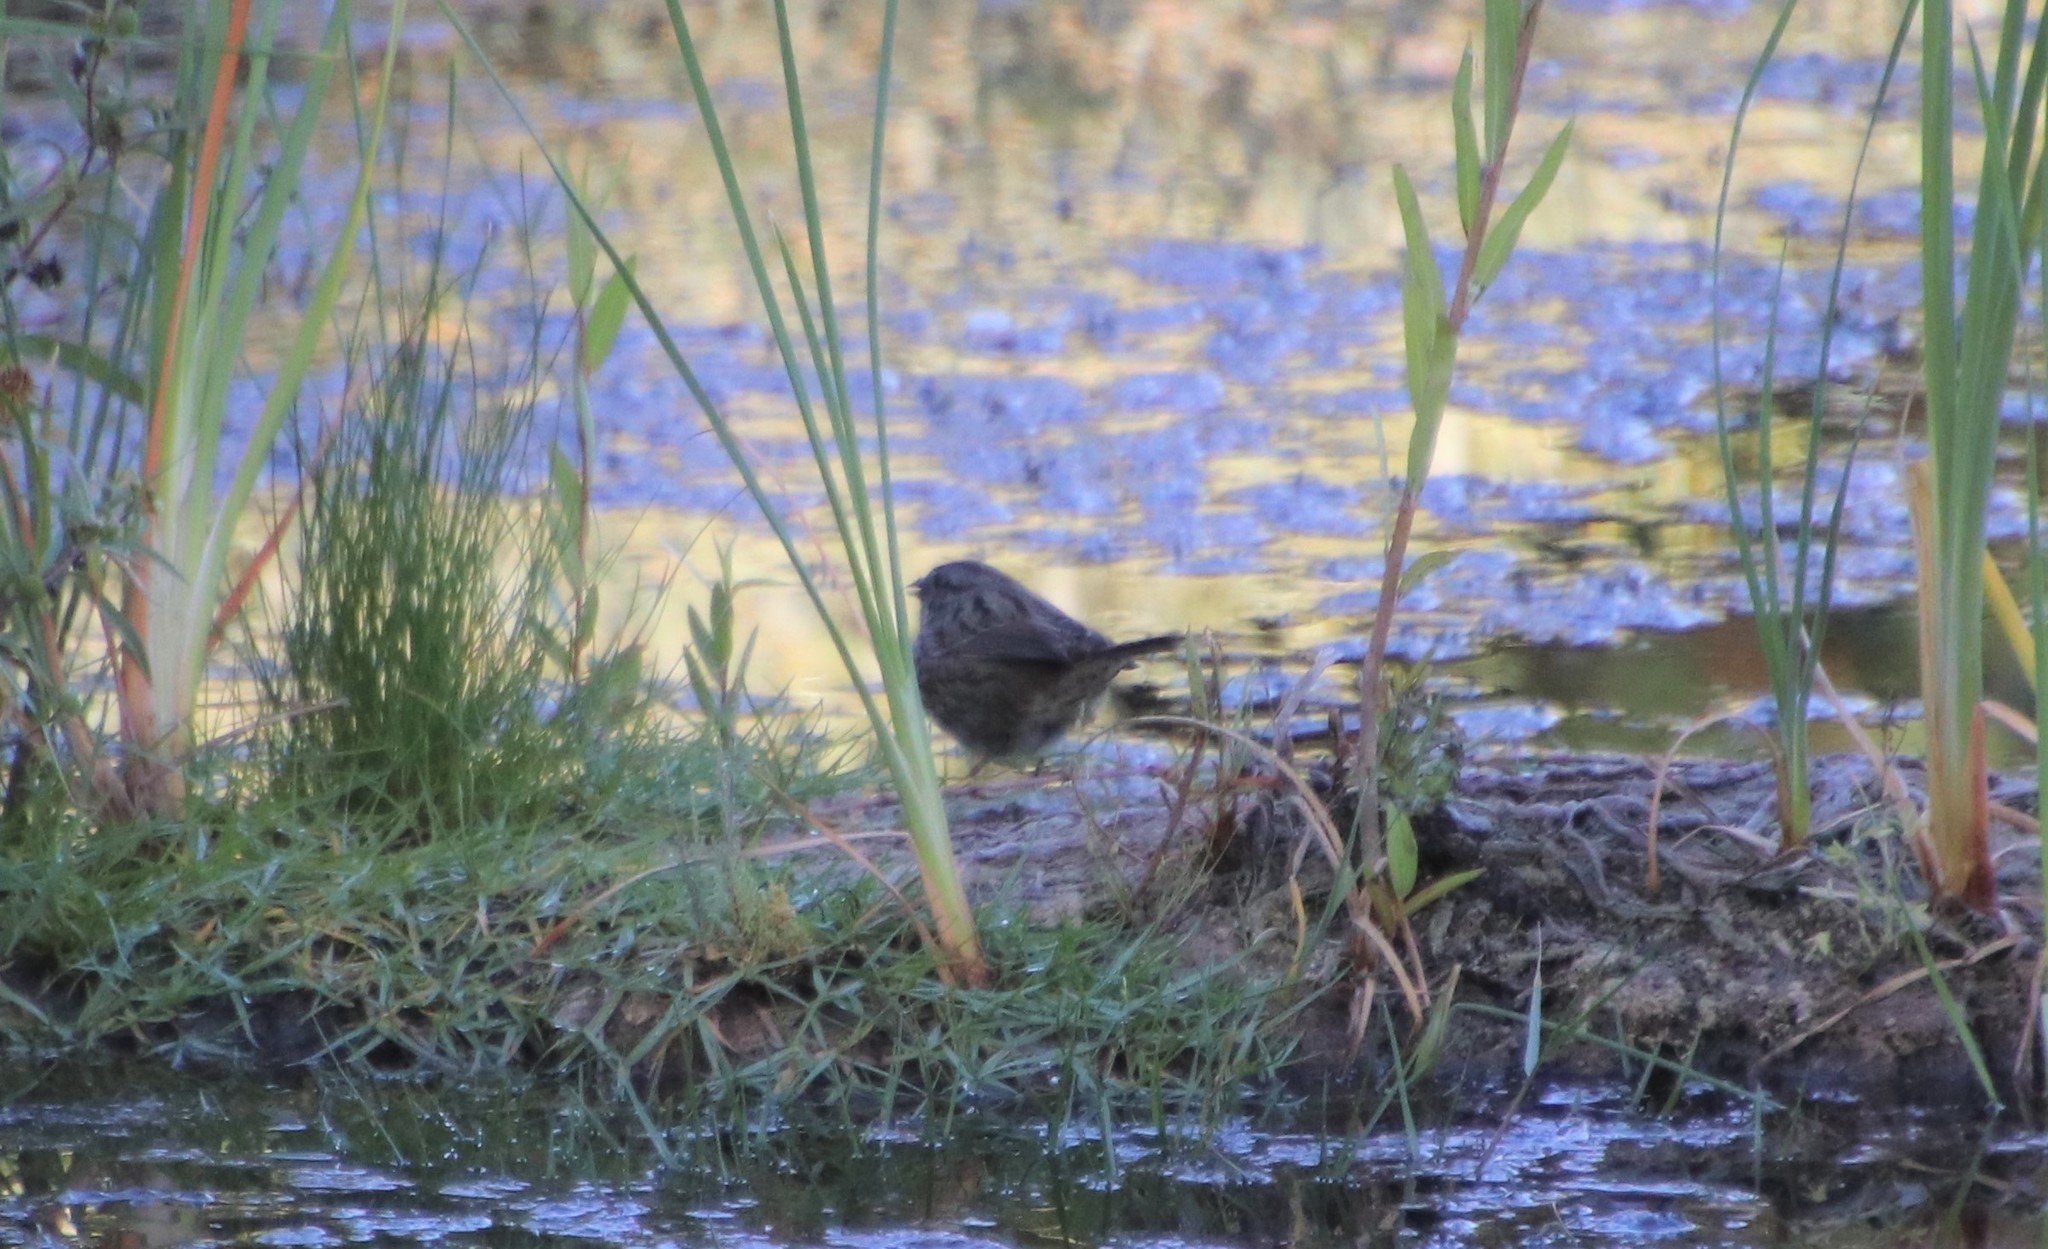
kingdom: Animalia
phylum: Chordata
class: Aves
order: Passeriformes
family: Passerellidae
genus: Melospiza
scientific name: Melospiza melodia
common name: Song sparrow
